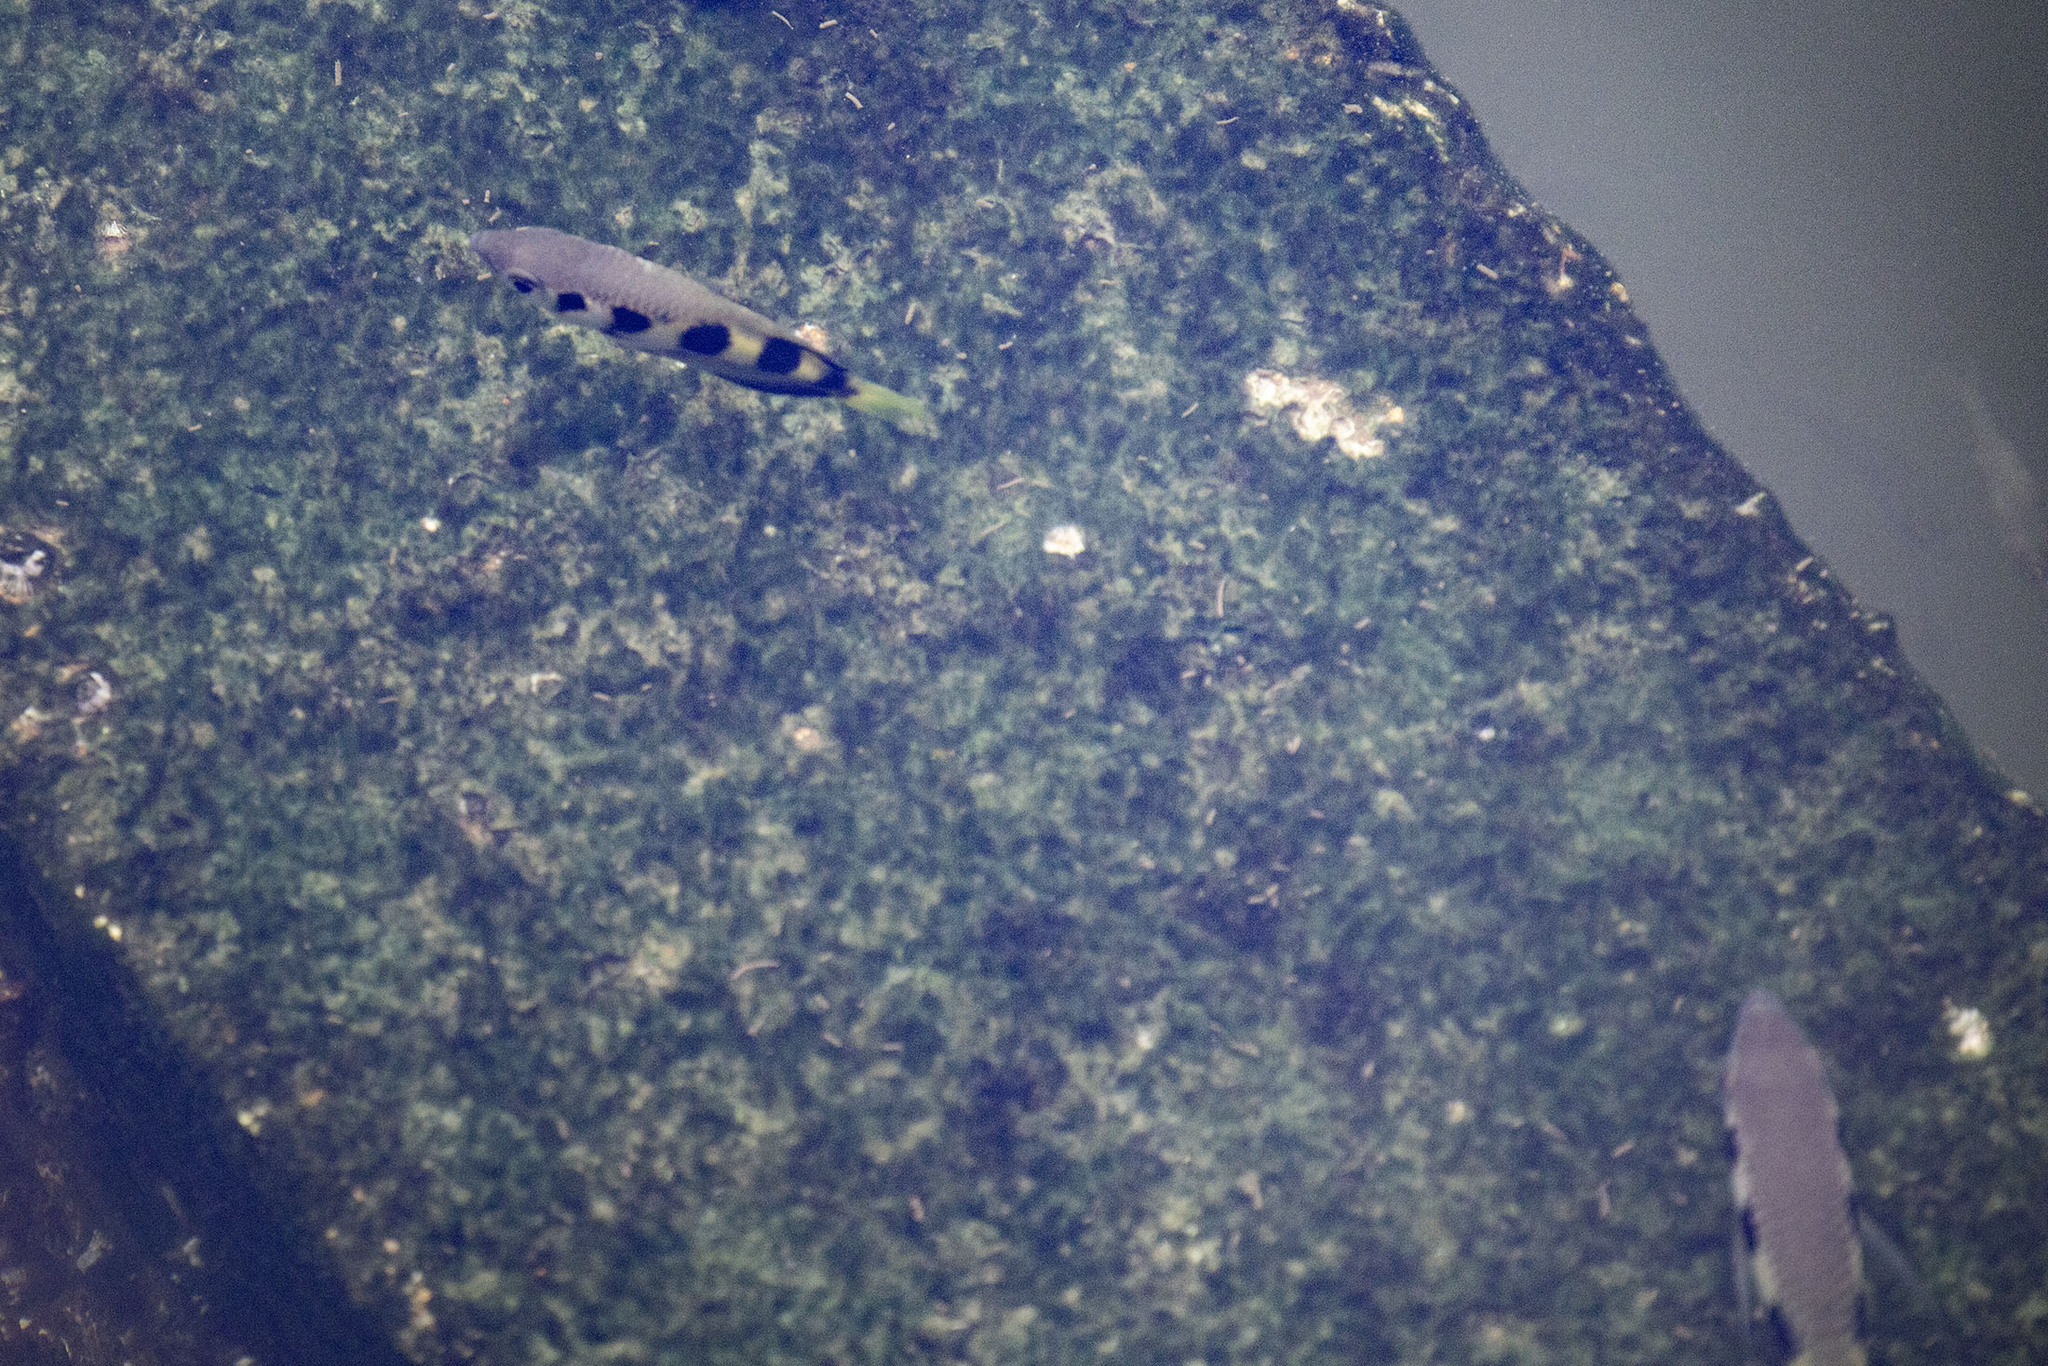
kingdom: Animalia
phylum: Chordata
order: Perciformes
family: Toxotidae
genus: Toxotes
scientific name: Toxotes jaculatrix
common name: Banded archerfish
